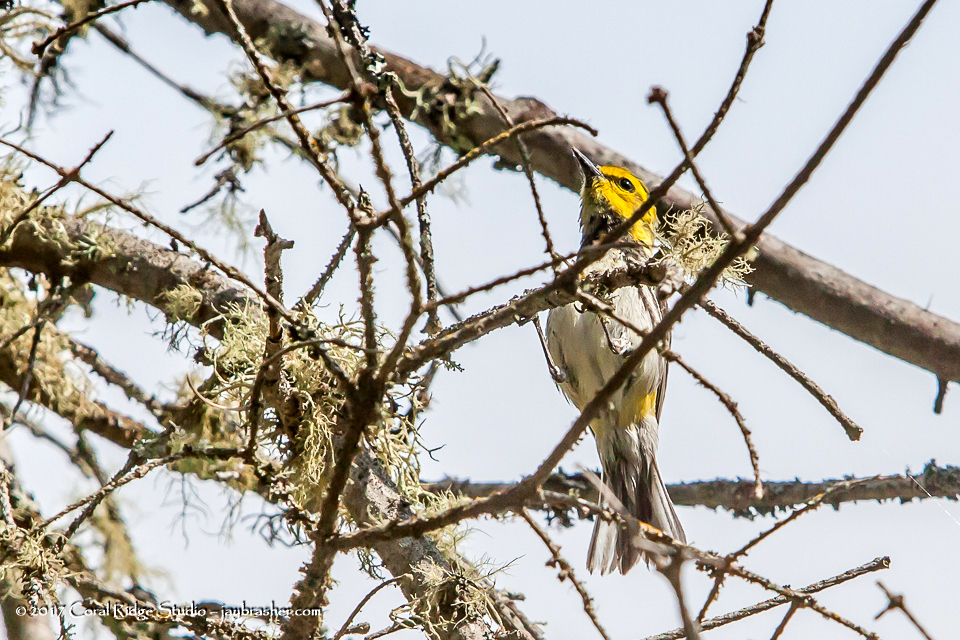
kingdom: Animalia
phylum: Chordata
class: Aves
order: Passeriformes
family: Parulidae
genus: Setophaga
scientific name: Setophaga virens
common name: Black-throated green warbler
